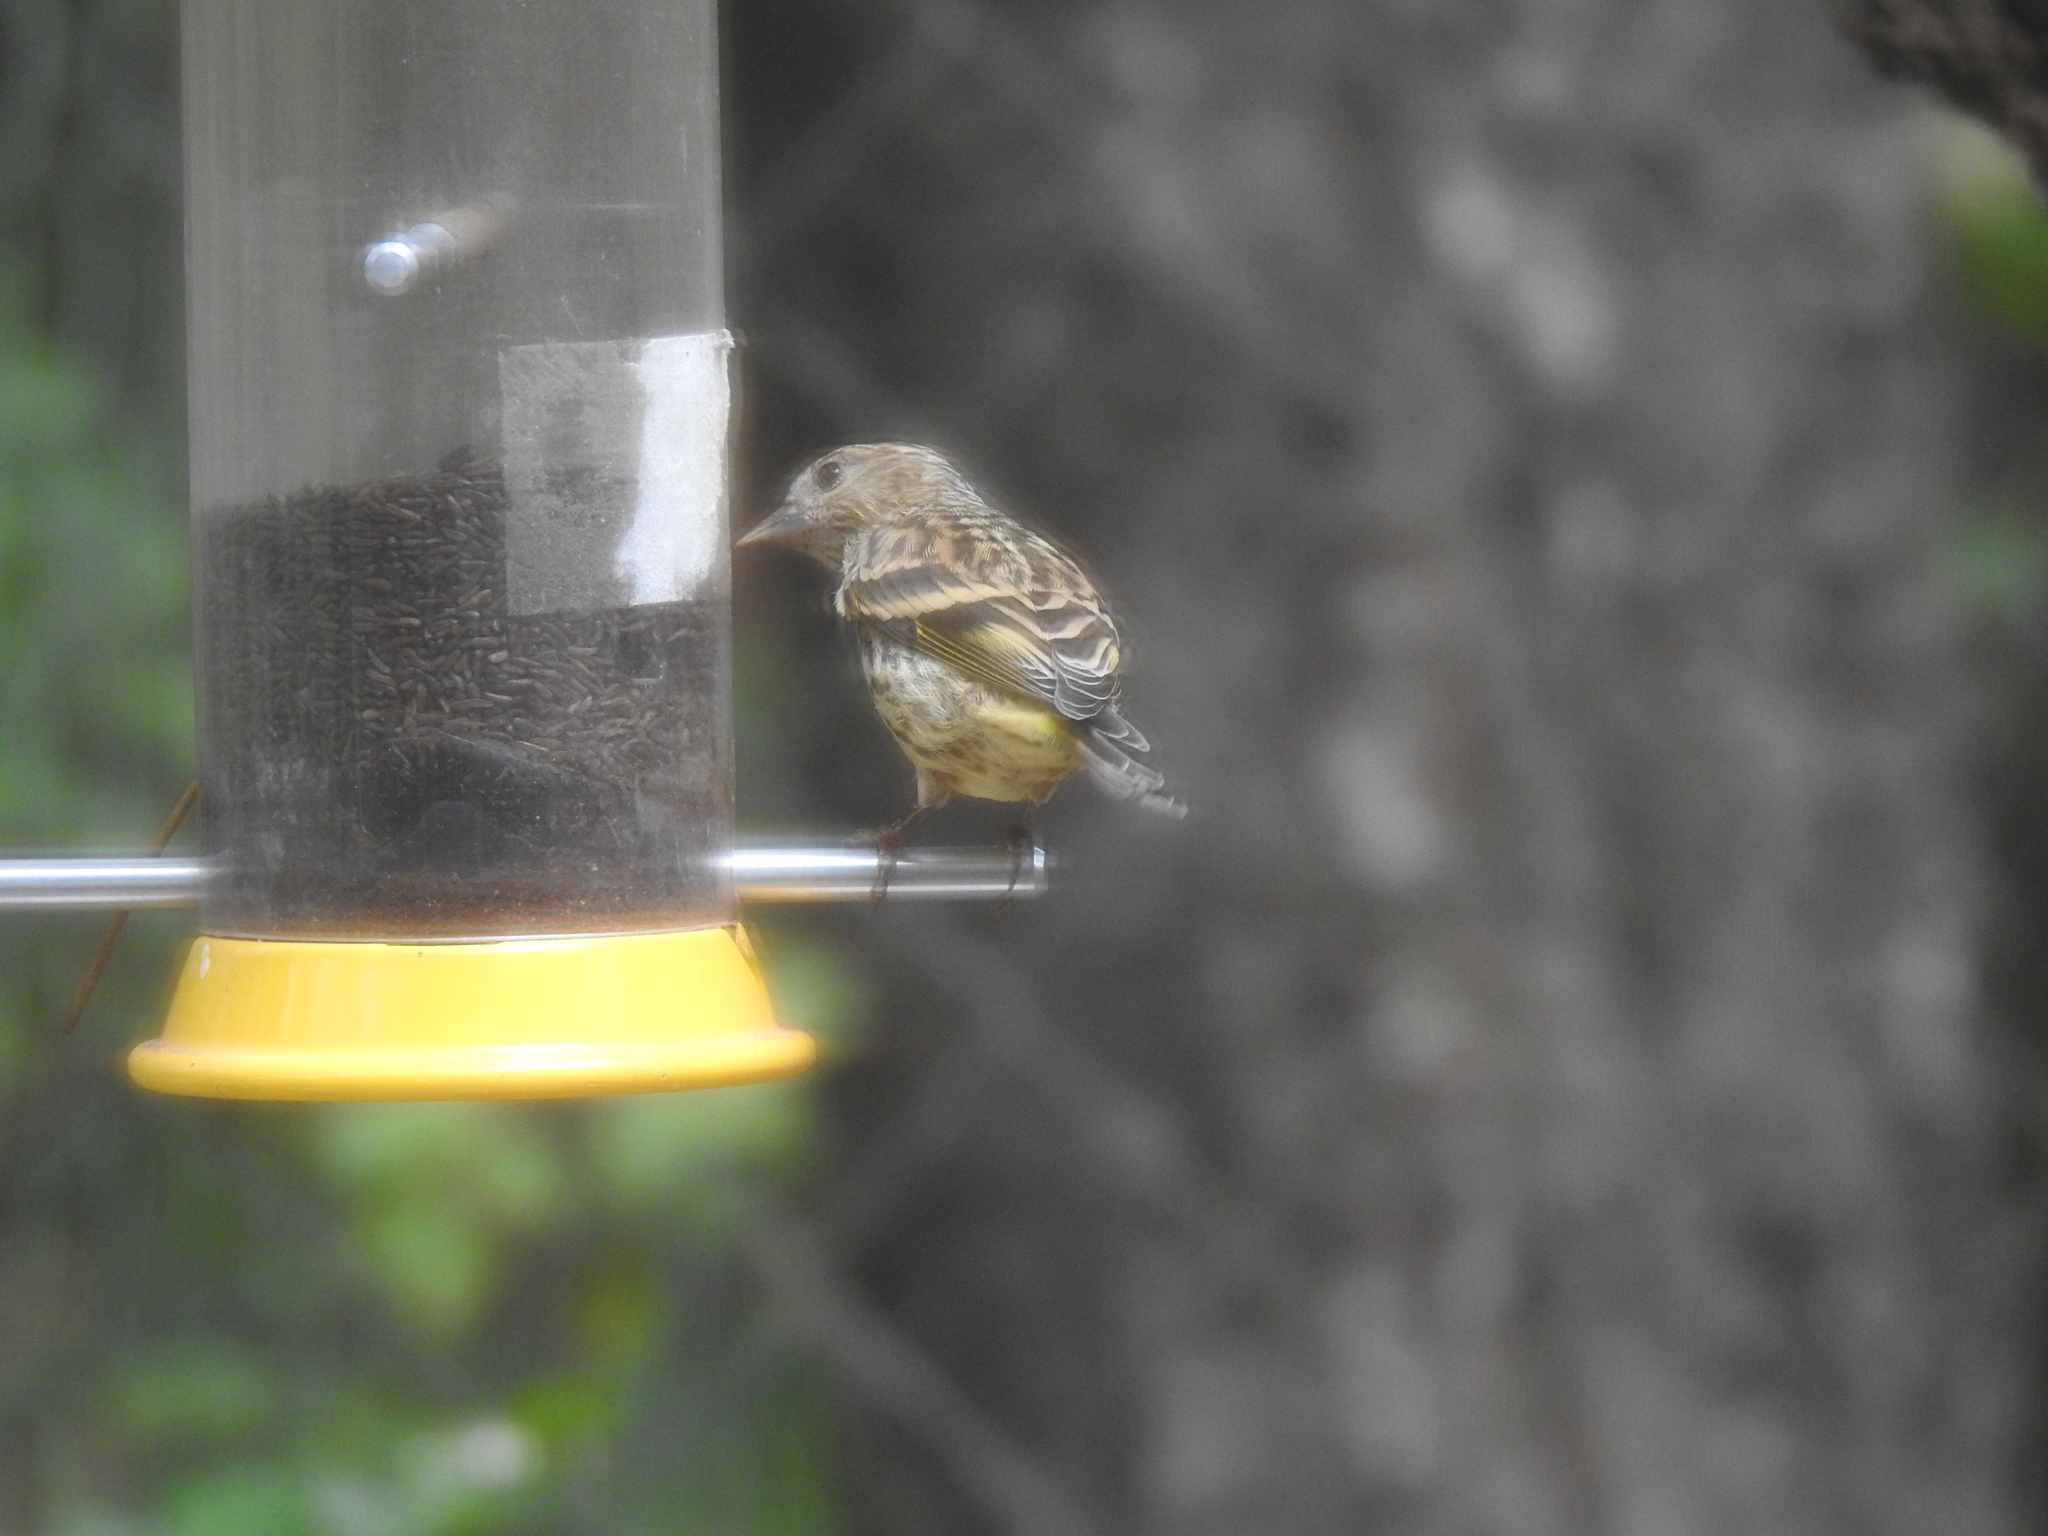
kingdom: Animalia
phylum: Chordata
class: Aves
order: Passeriformes
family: Fringillidae
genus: Spinus
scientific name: Spinus pinus
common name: Pine siskin
